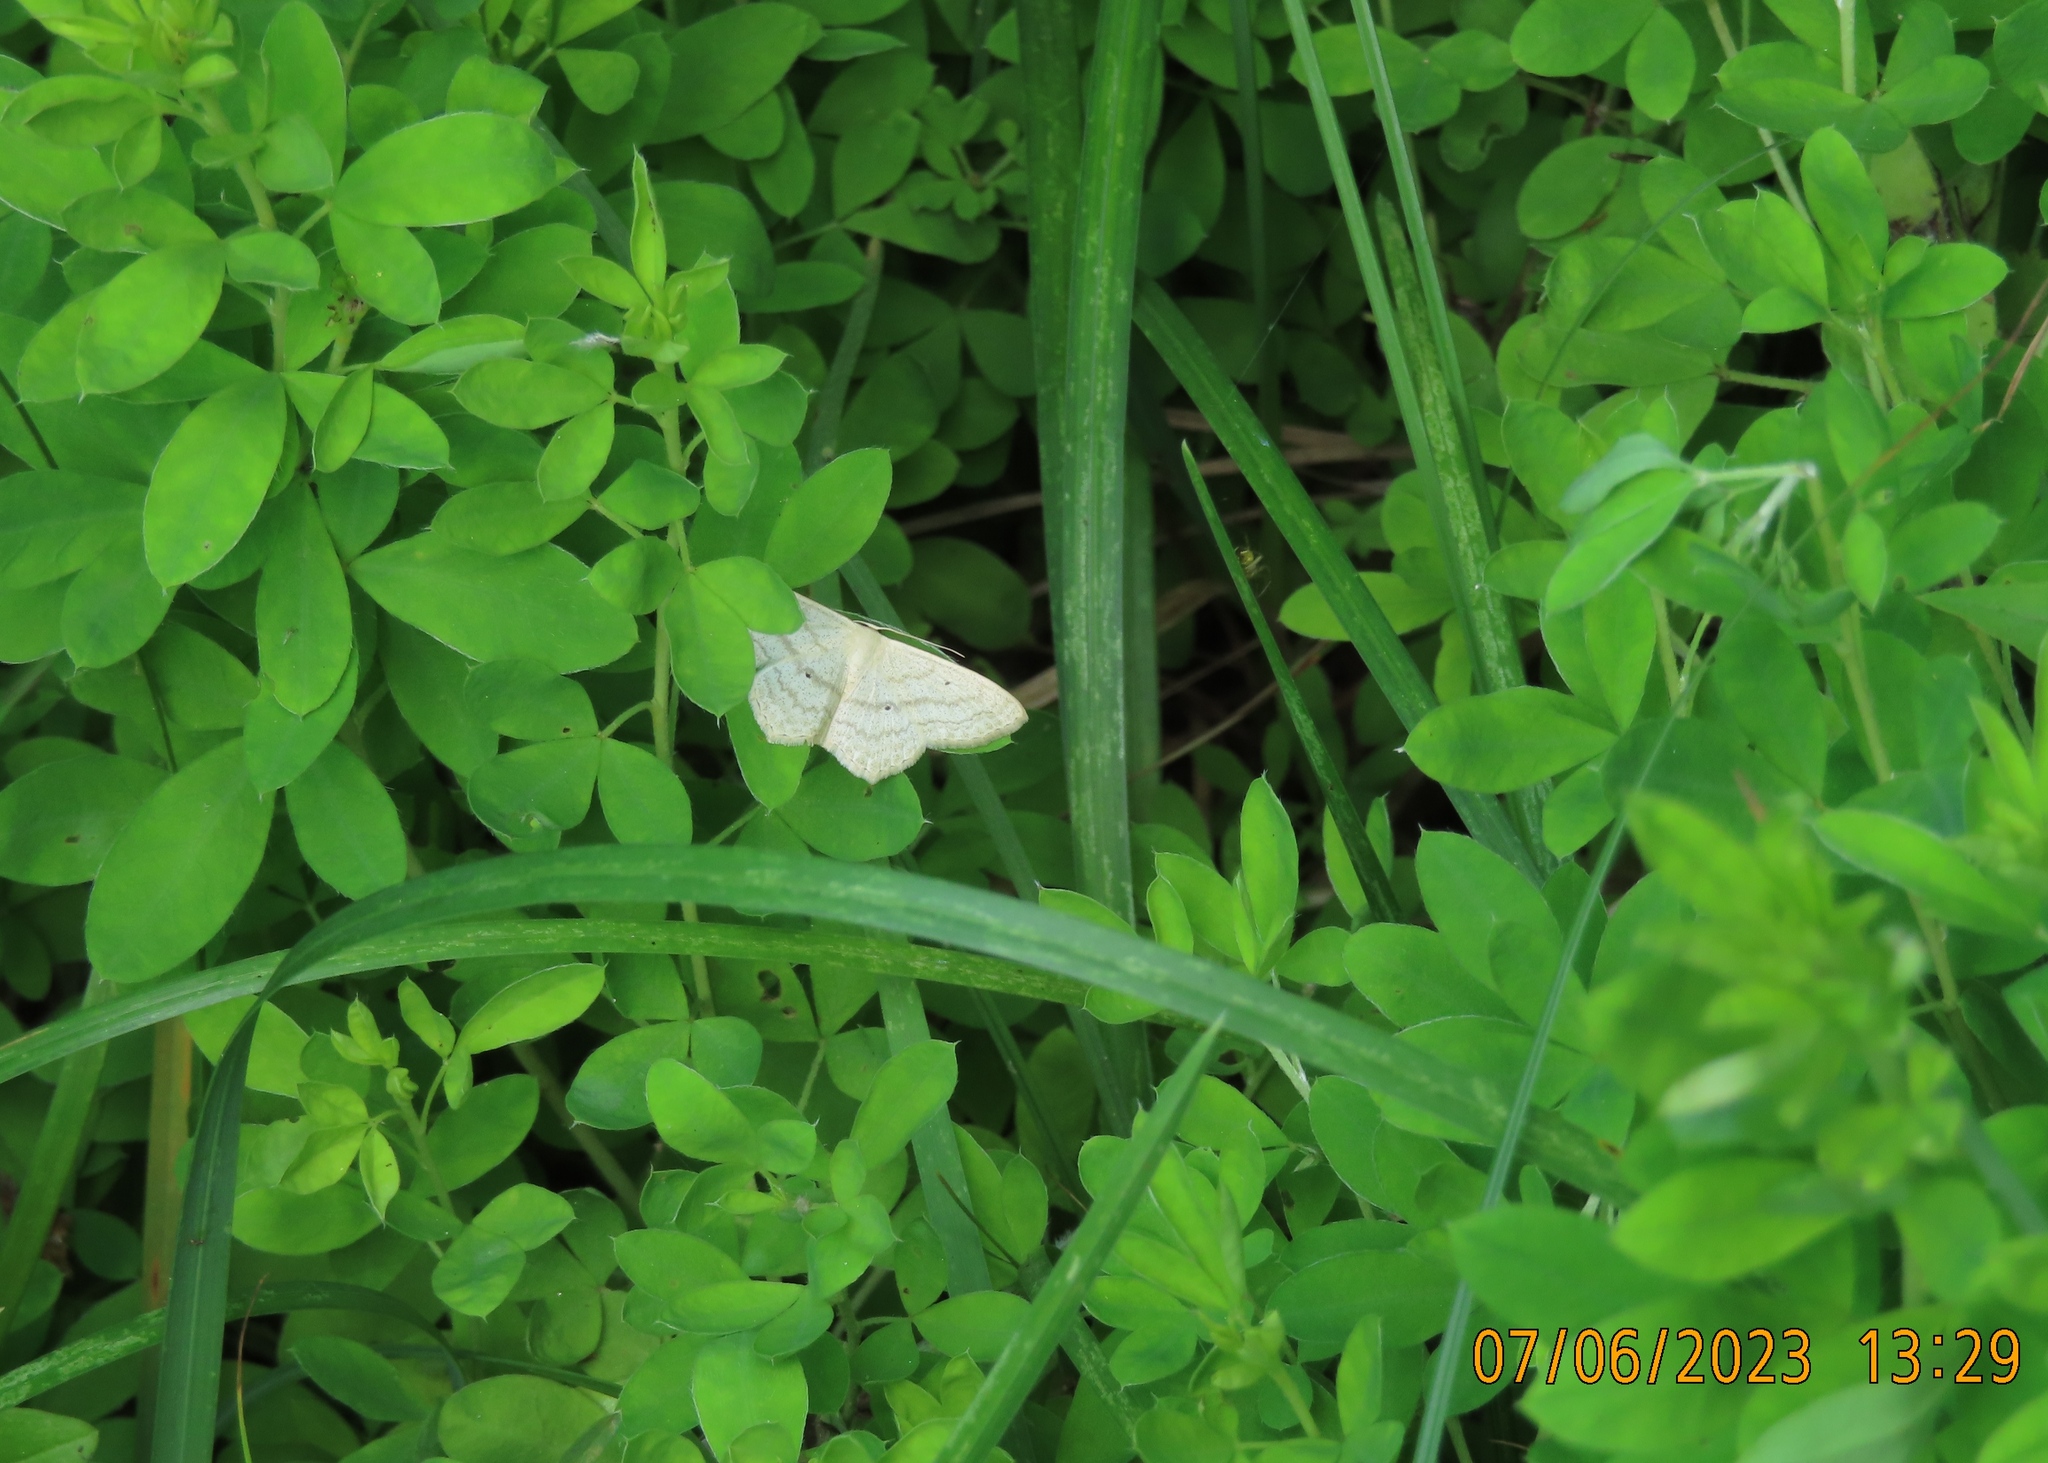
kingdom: Animalia
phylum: Arthropoda
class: Insecta
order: Lepidoptera
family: Geometridae
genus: Scopula
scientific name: Scopula nigropunctata
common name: Sub-angled wave
